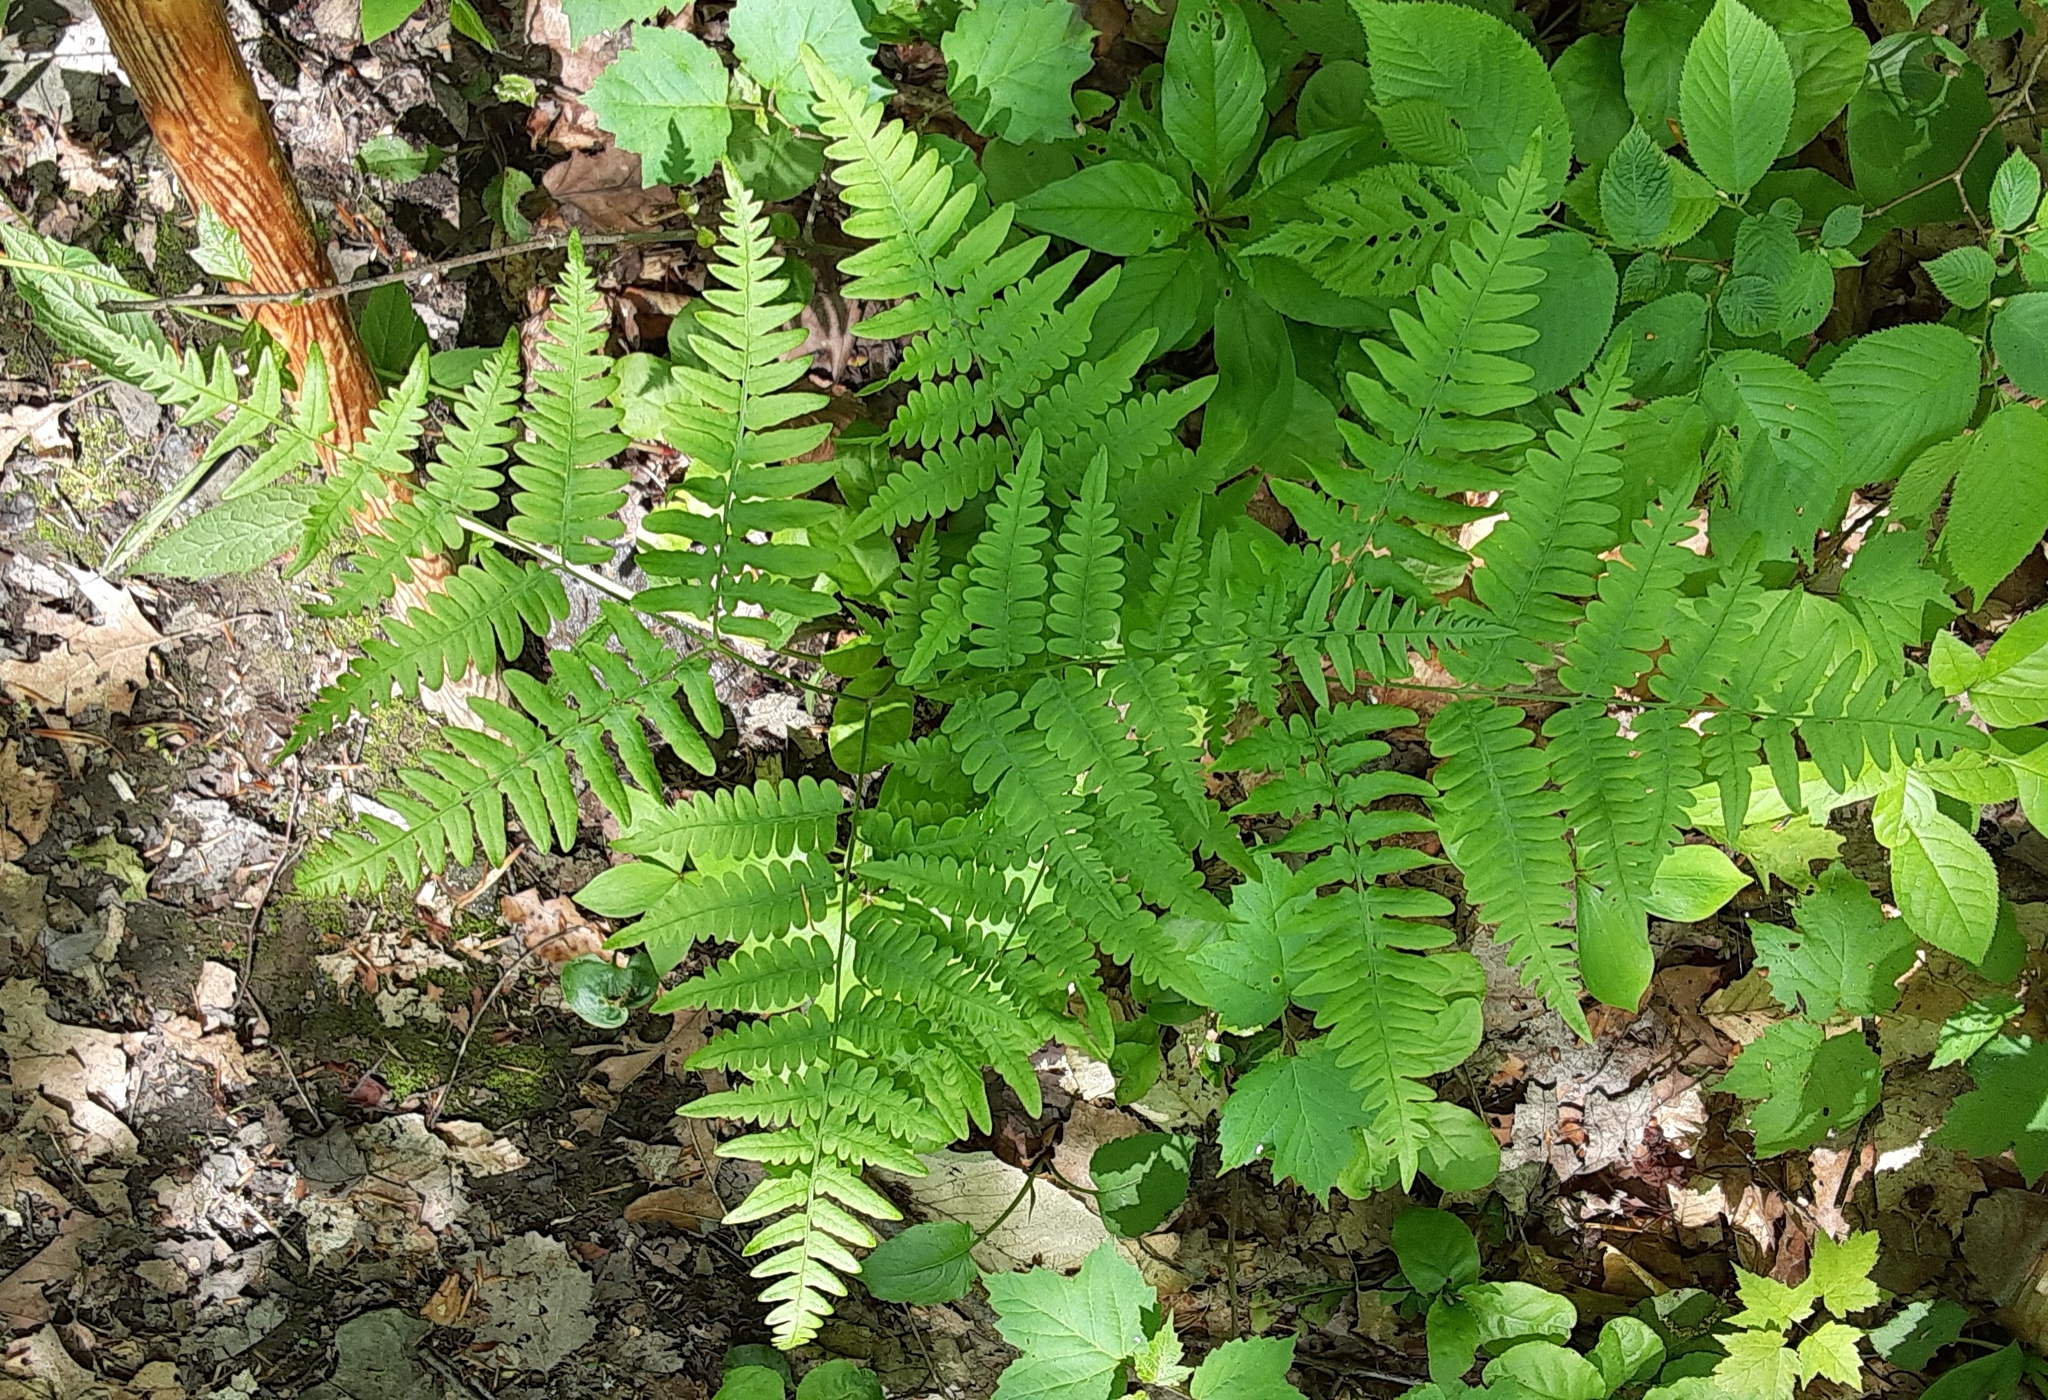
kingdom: Plantae
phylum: Tracheophyta
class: Polypodiopsida
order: Polypodiales
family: Dennstaedtiaceae
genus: Pteridium
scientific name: Pteridium aquilinum
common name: Bracken
